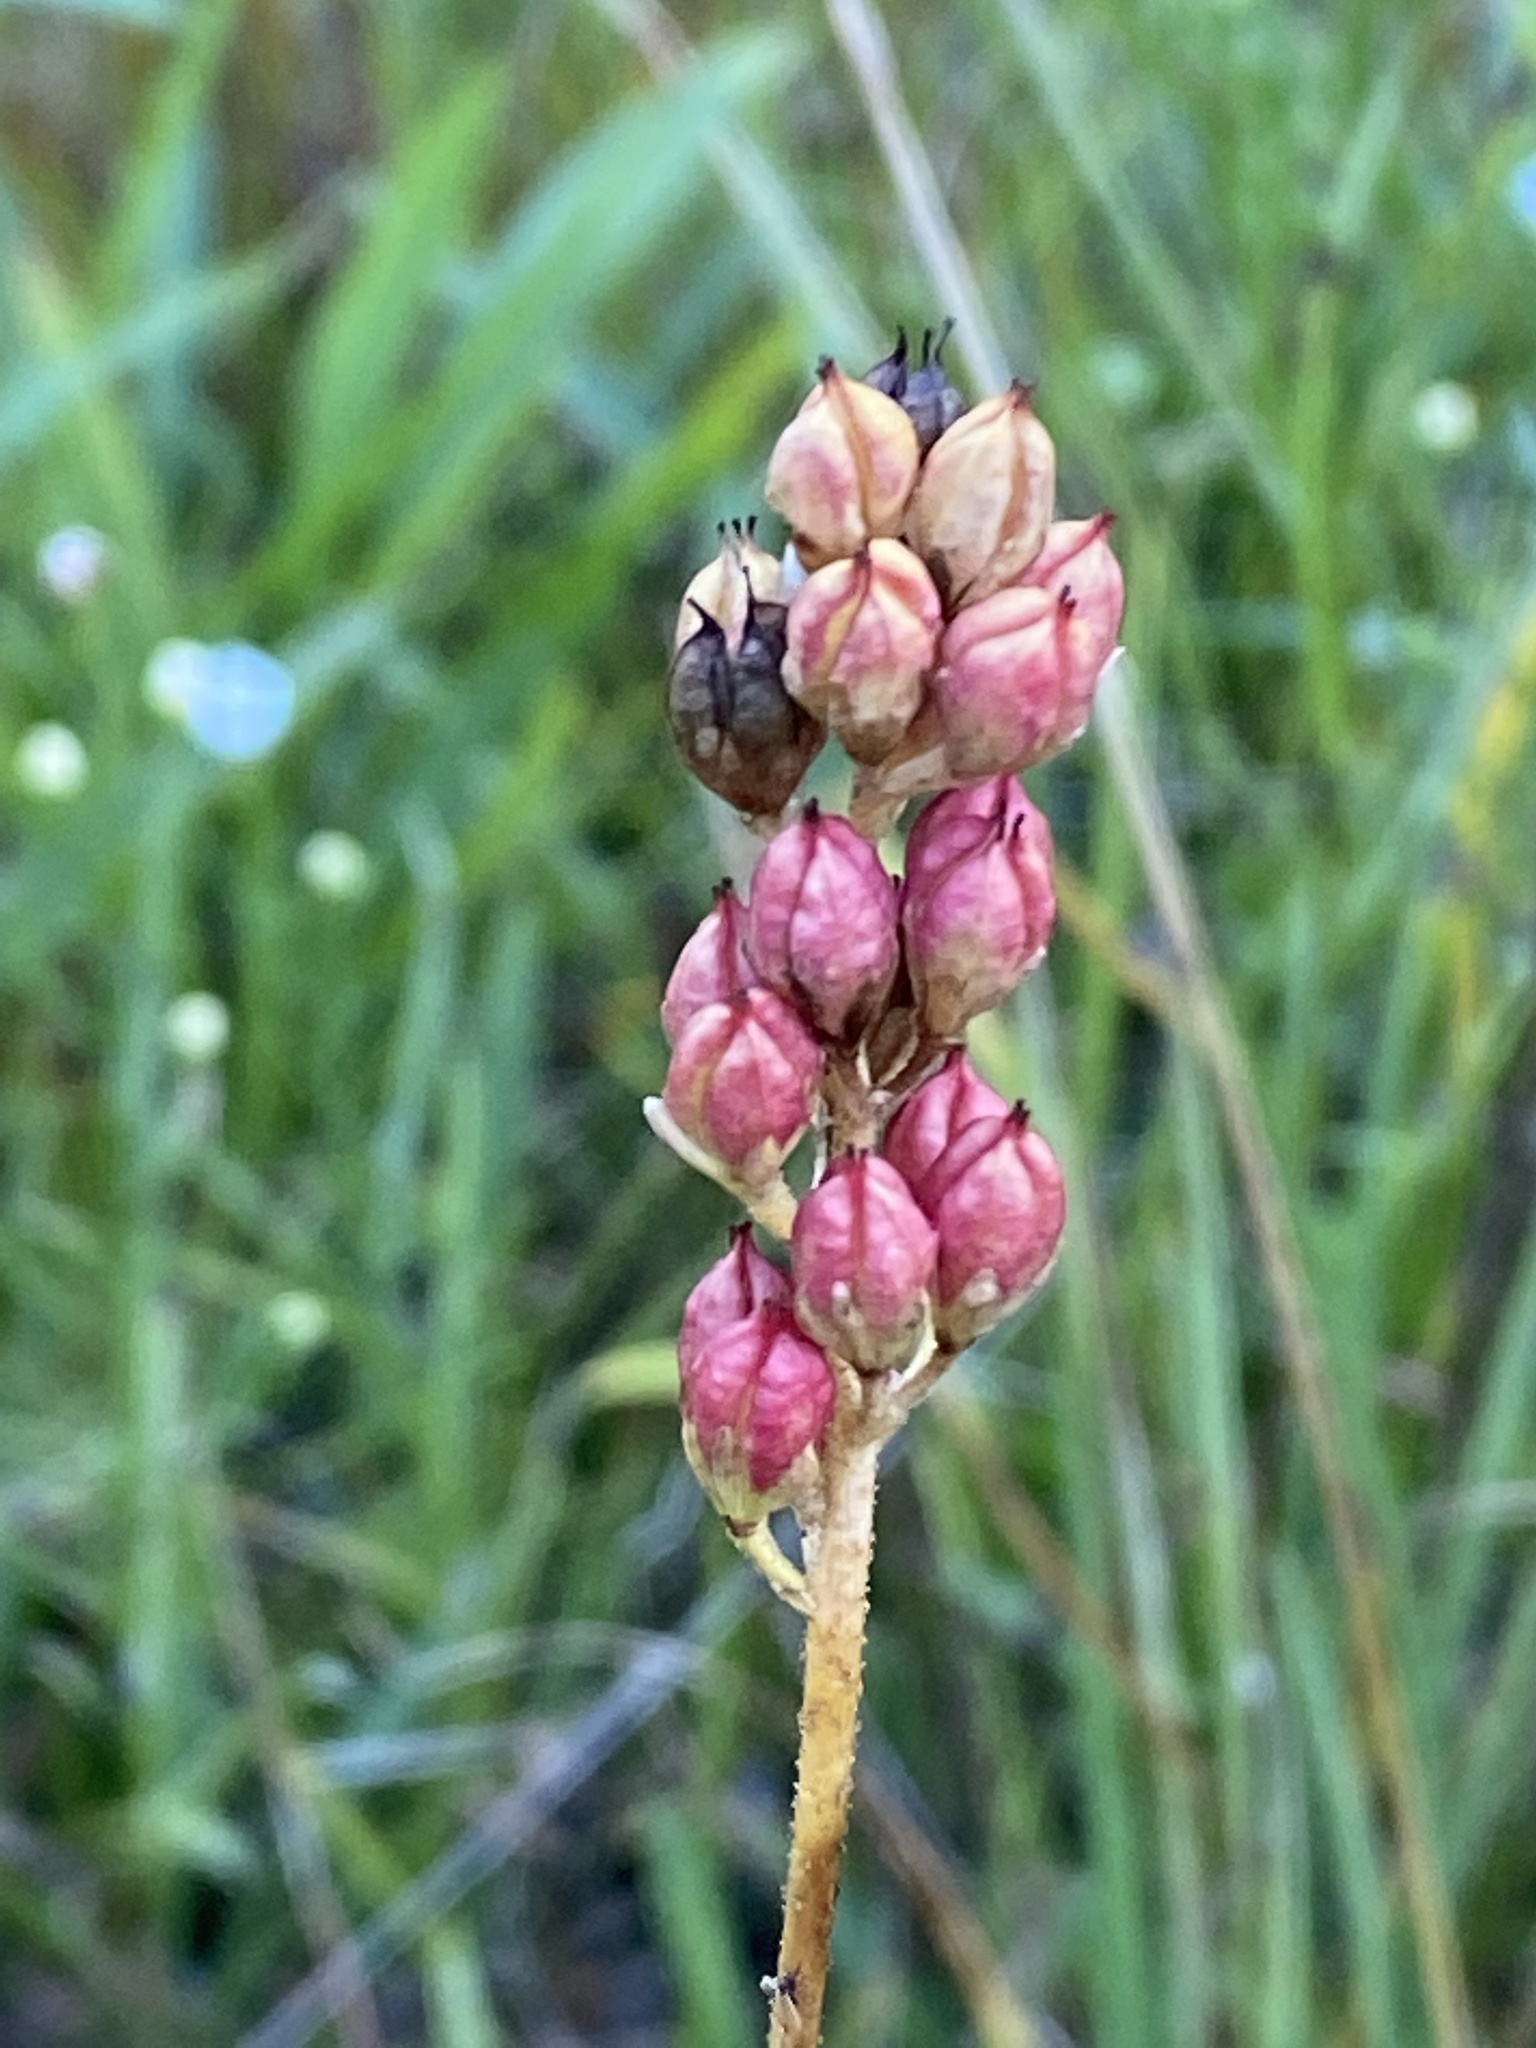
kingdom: Plantae
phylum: Tracheophyta
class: Liliopsida
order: Alismatales
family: Tofieldiaceae
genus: Triantha
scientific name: Triantha glutinosa
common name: Glutinous tofieldia
